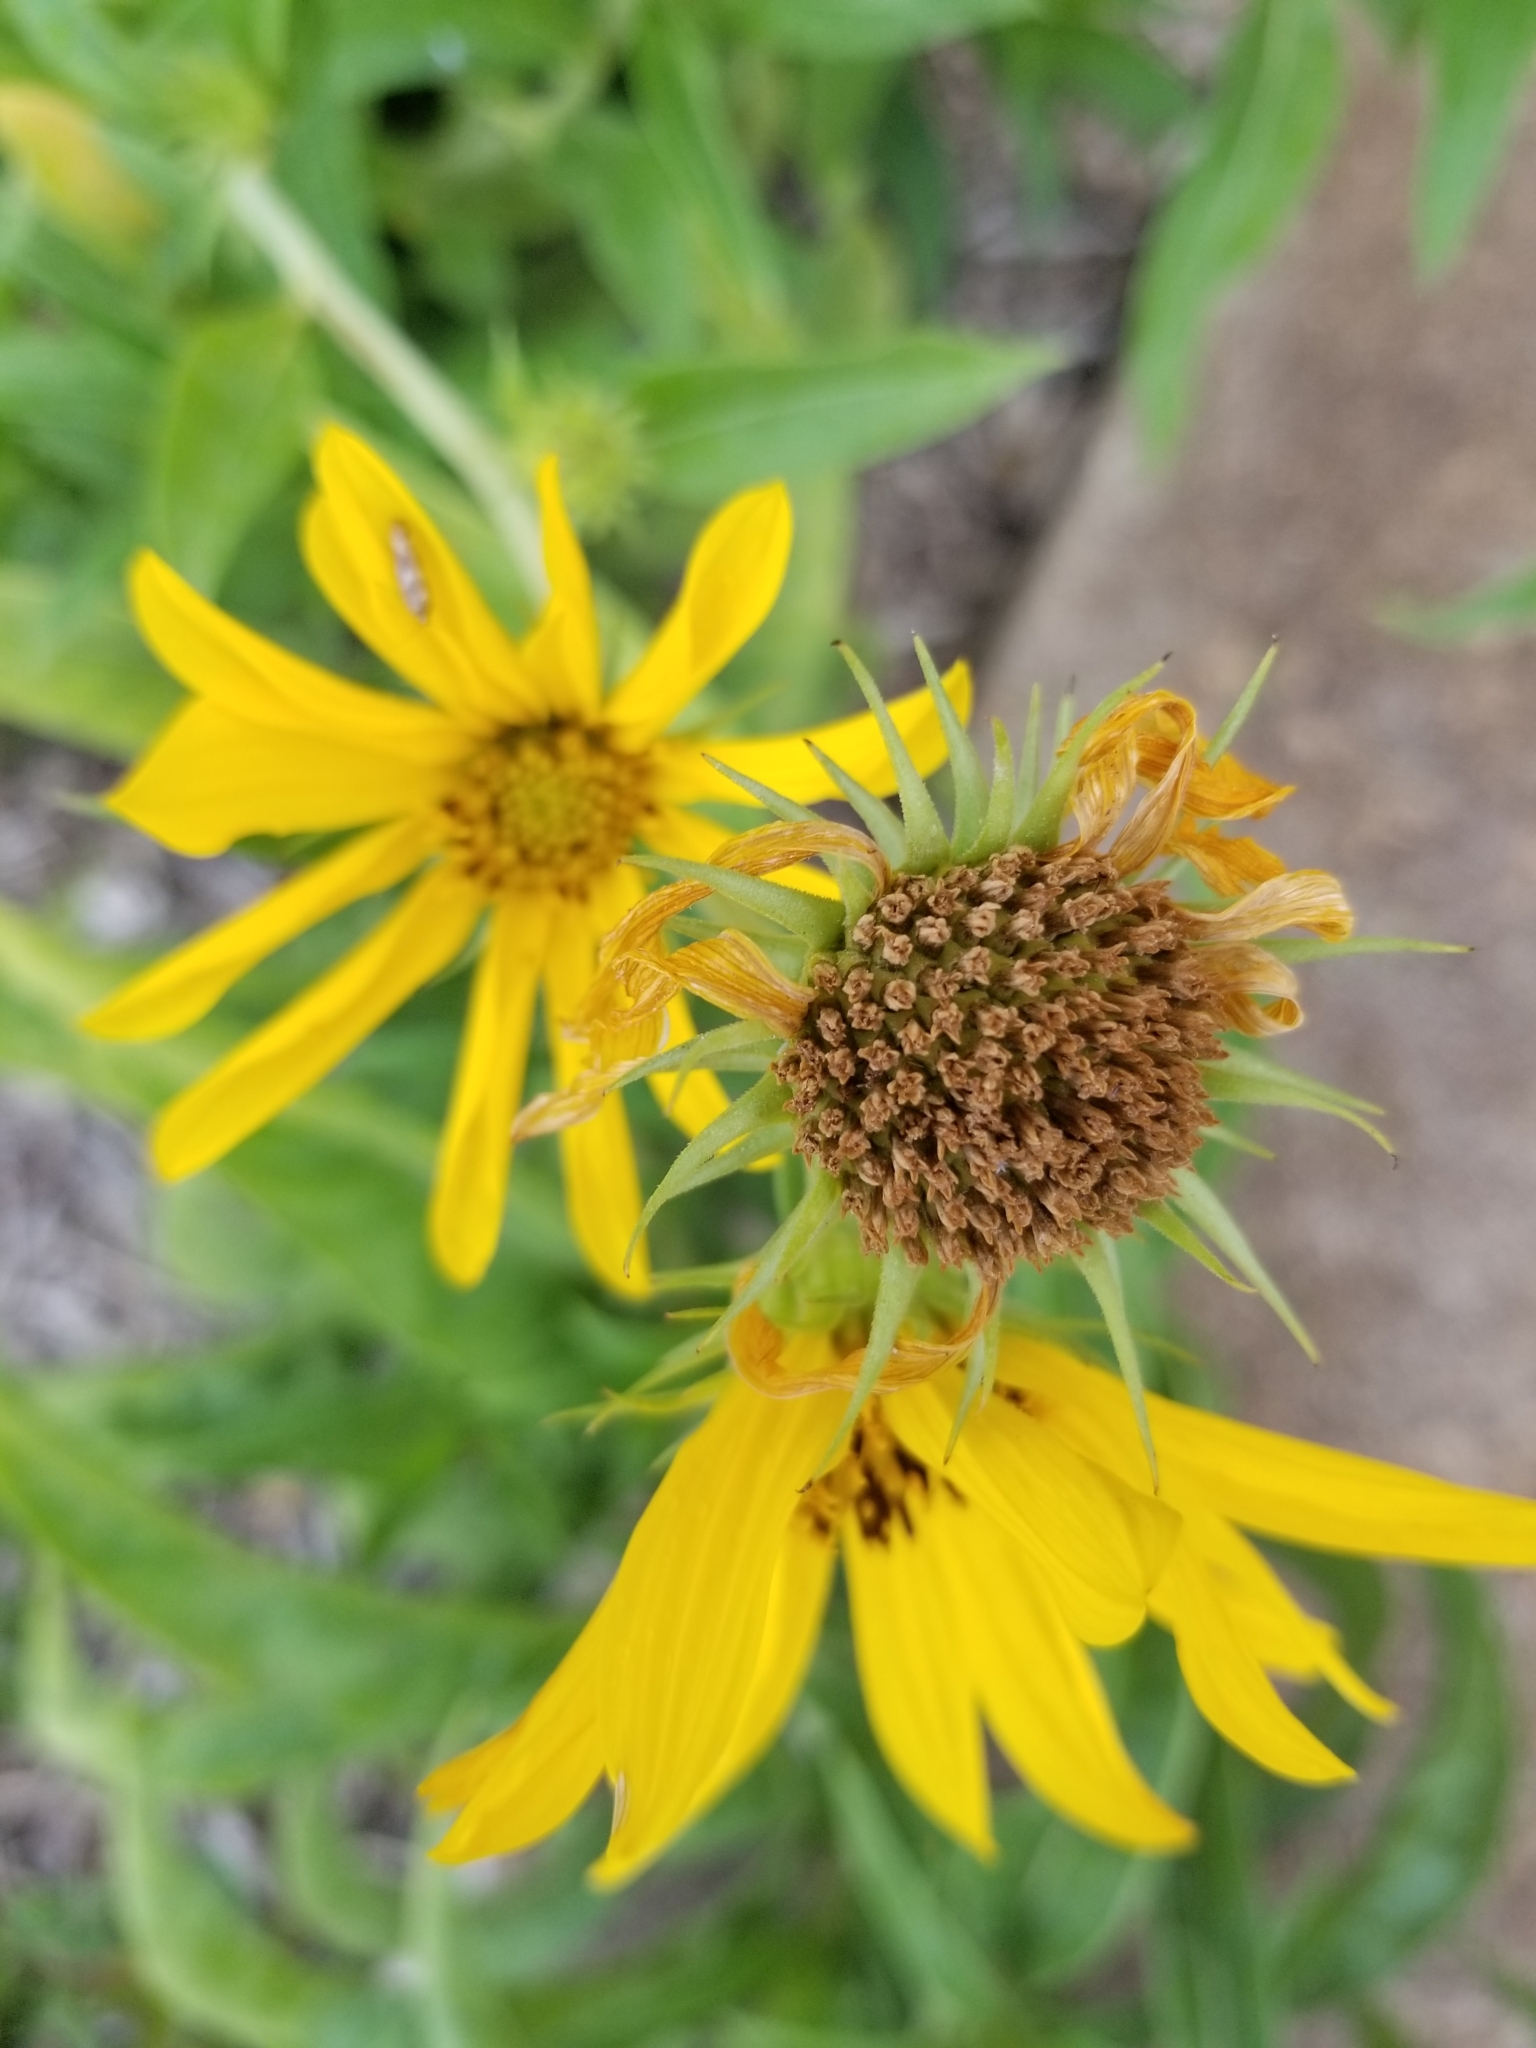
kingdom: Plantae
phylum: Tracheophyta
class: Magnoliopsida
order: Asterales
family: Asteraceae
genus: Helianthus
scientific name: Helianthus maximiliani
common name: Maximilian's sunflower
